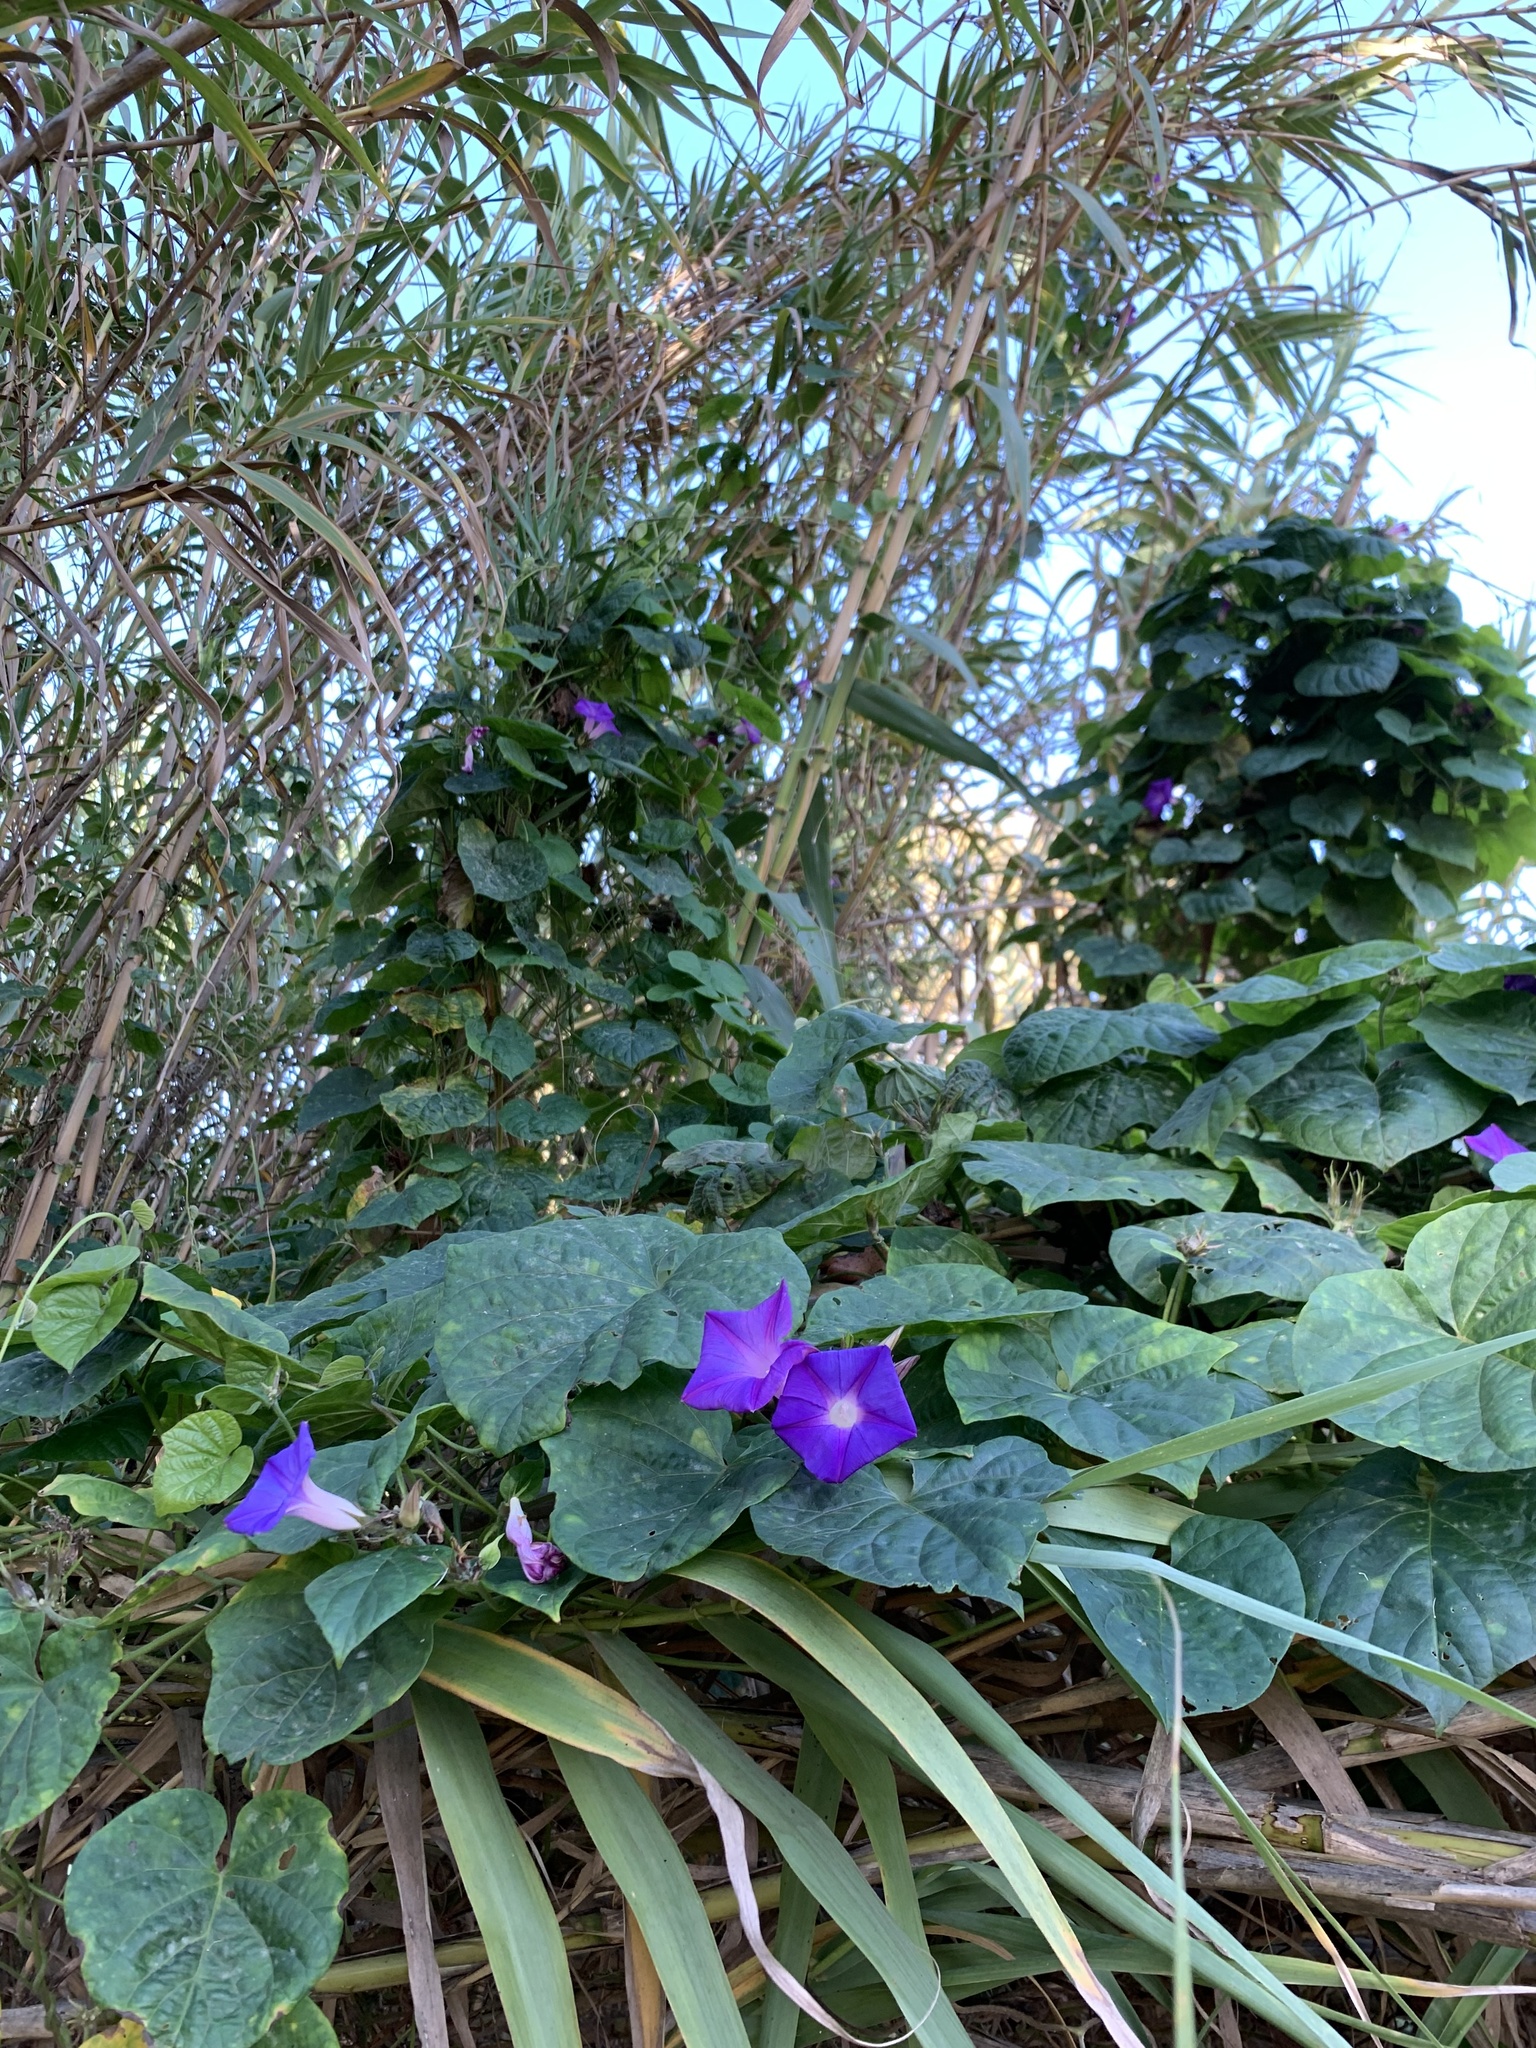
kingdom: Plantae
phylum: Tracheophyta
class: Magnoliopsida
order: Solanales
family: Convolvulaceae
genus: Ipomoea
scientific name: Ipomoea indica
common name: Blue dawnflower
